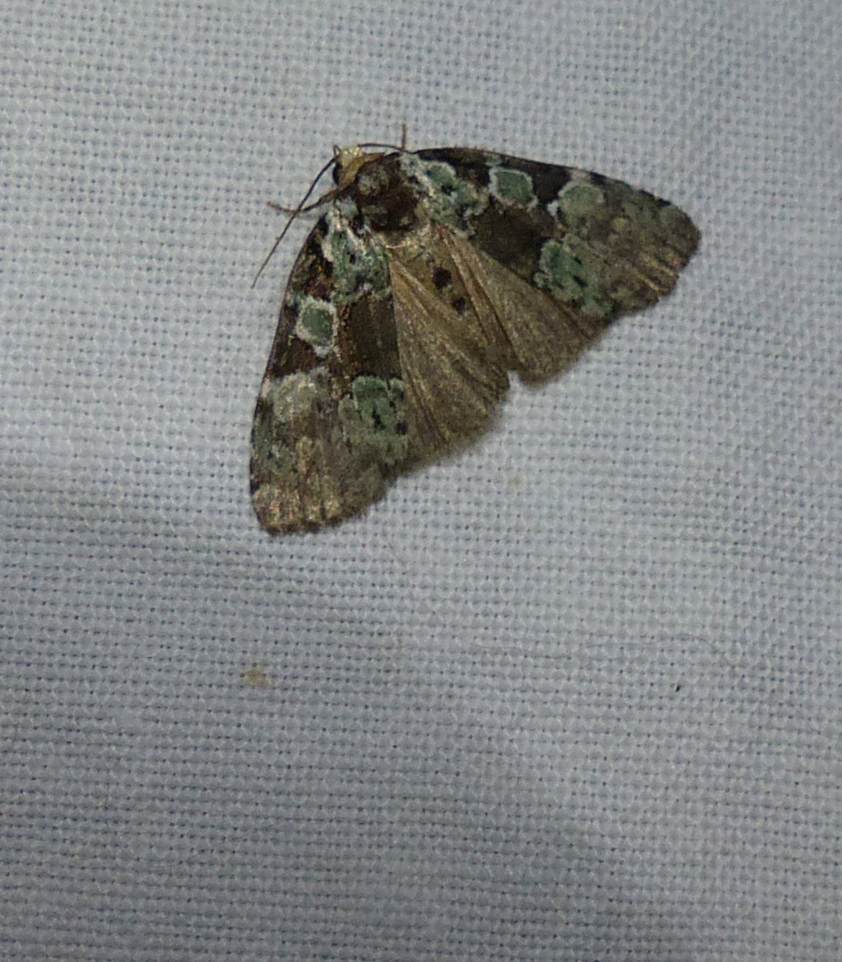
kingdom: Animalia
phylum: Arthropoda
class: Insecta
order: Lepidoptera
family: Noctuidae
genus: Leuconycta
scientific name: Leuconycta lepidula
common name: Marbled-green leuconycta moth
